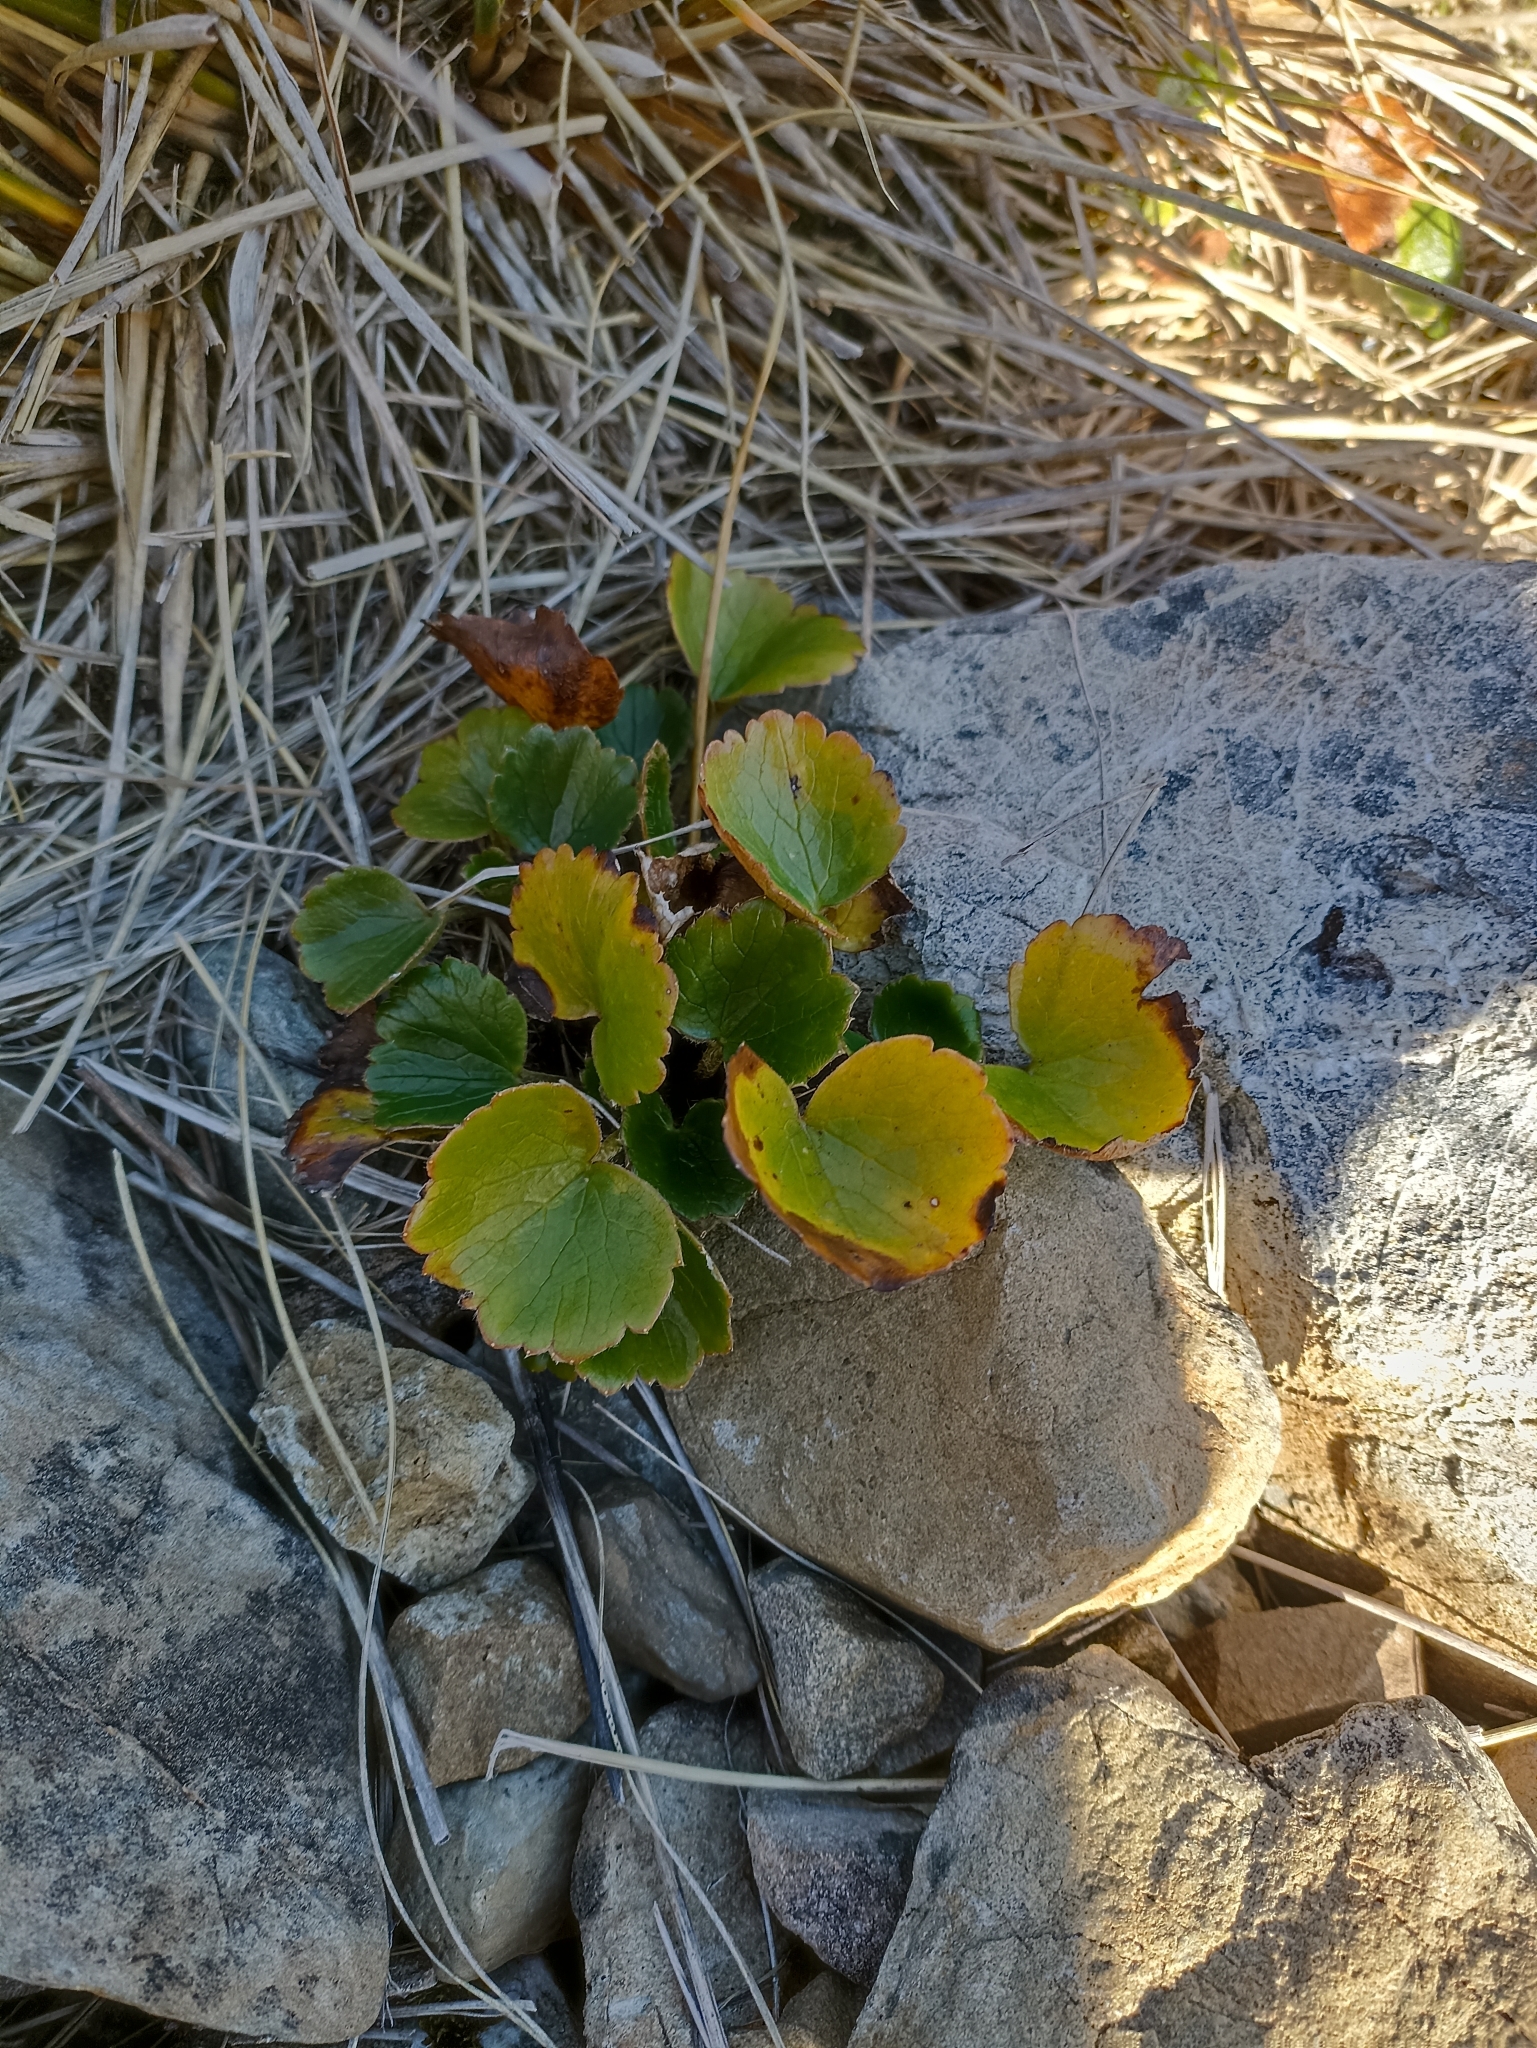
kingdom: Plantae
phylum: Tracheophyta
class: Magnoliopsida
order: Ranunculales
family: Ranunculaceae
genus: Ranunculus
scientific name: Ranunculus insignis
